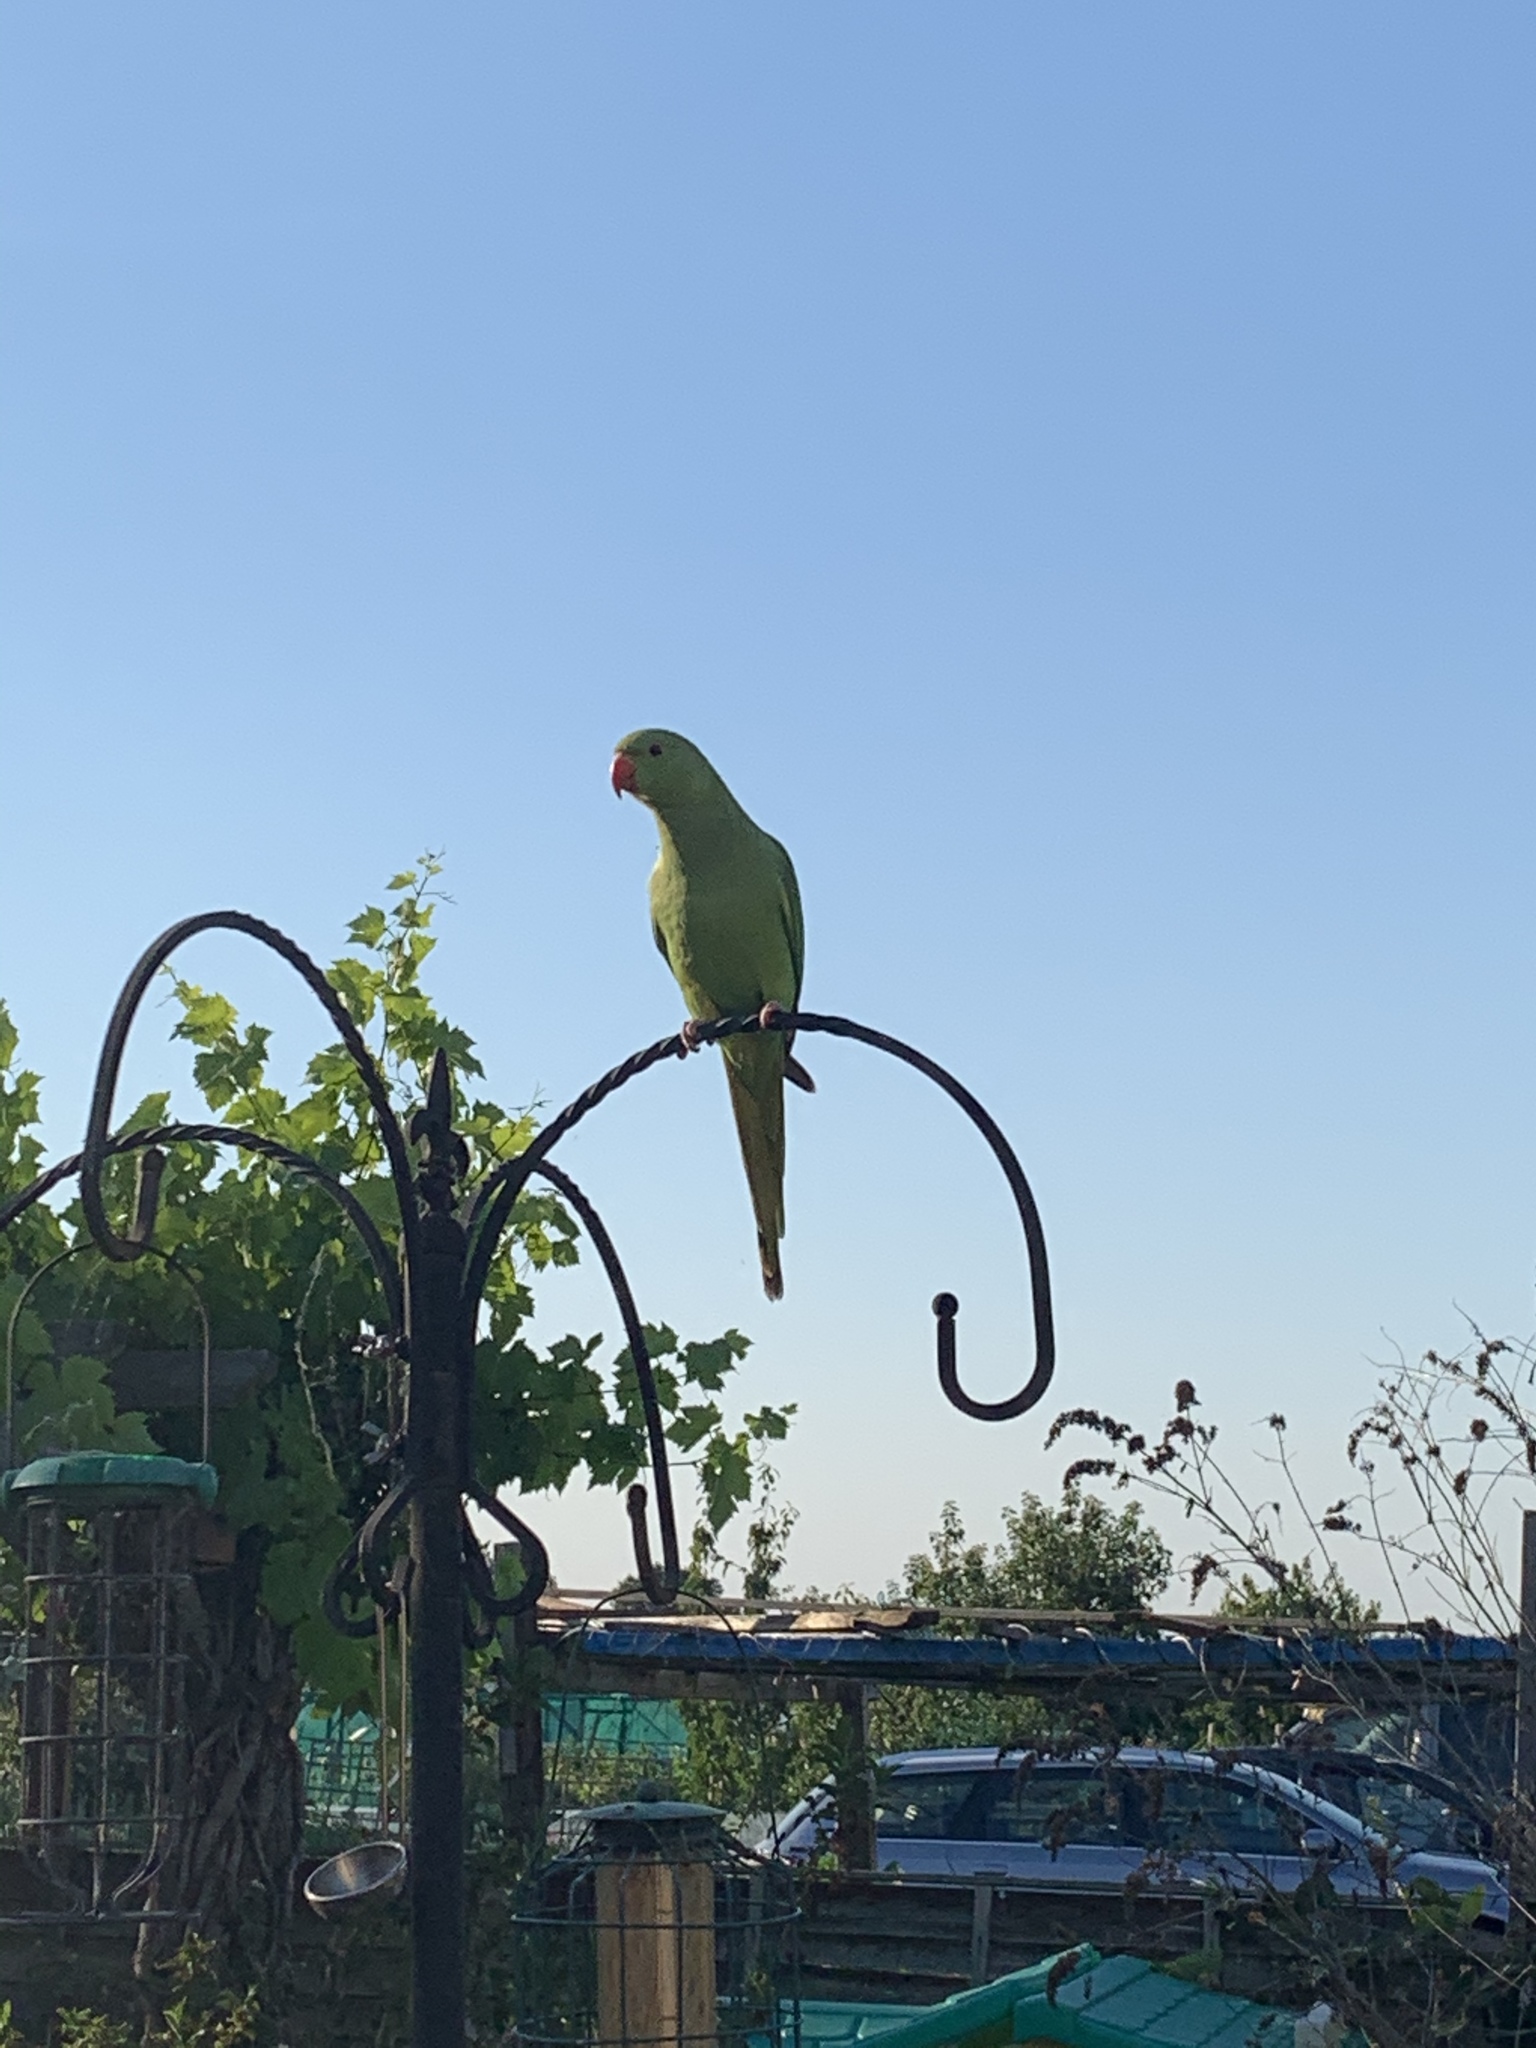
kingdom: Animalia
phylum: Chordata
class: Aves
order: Psittaciformes
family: Psittacidae
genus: Psittacula
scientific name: Psittacula krameri
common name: Rose-ringed parakeet
